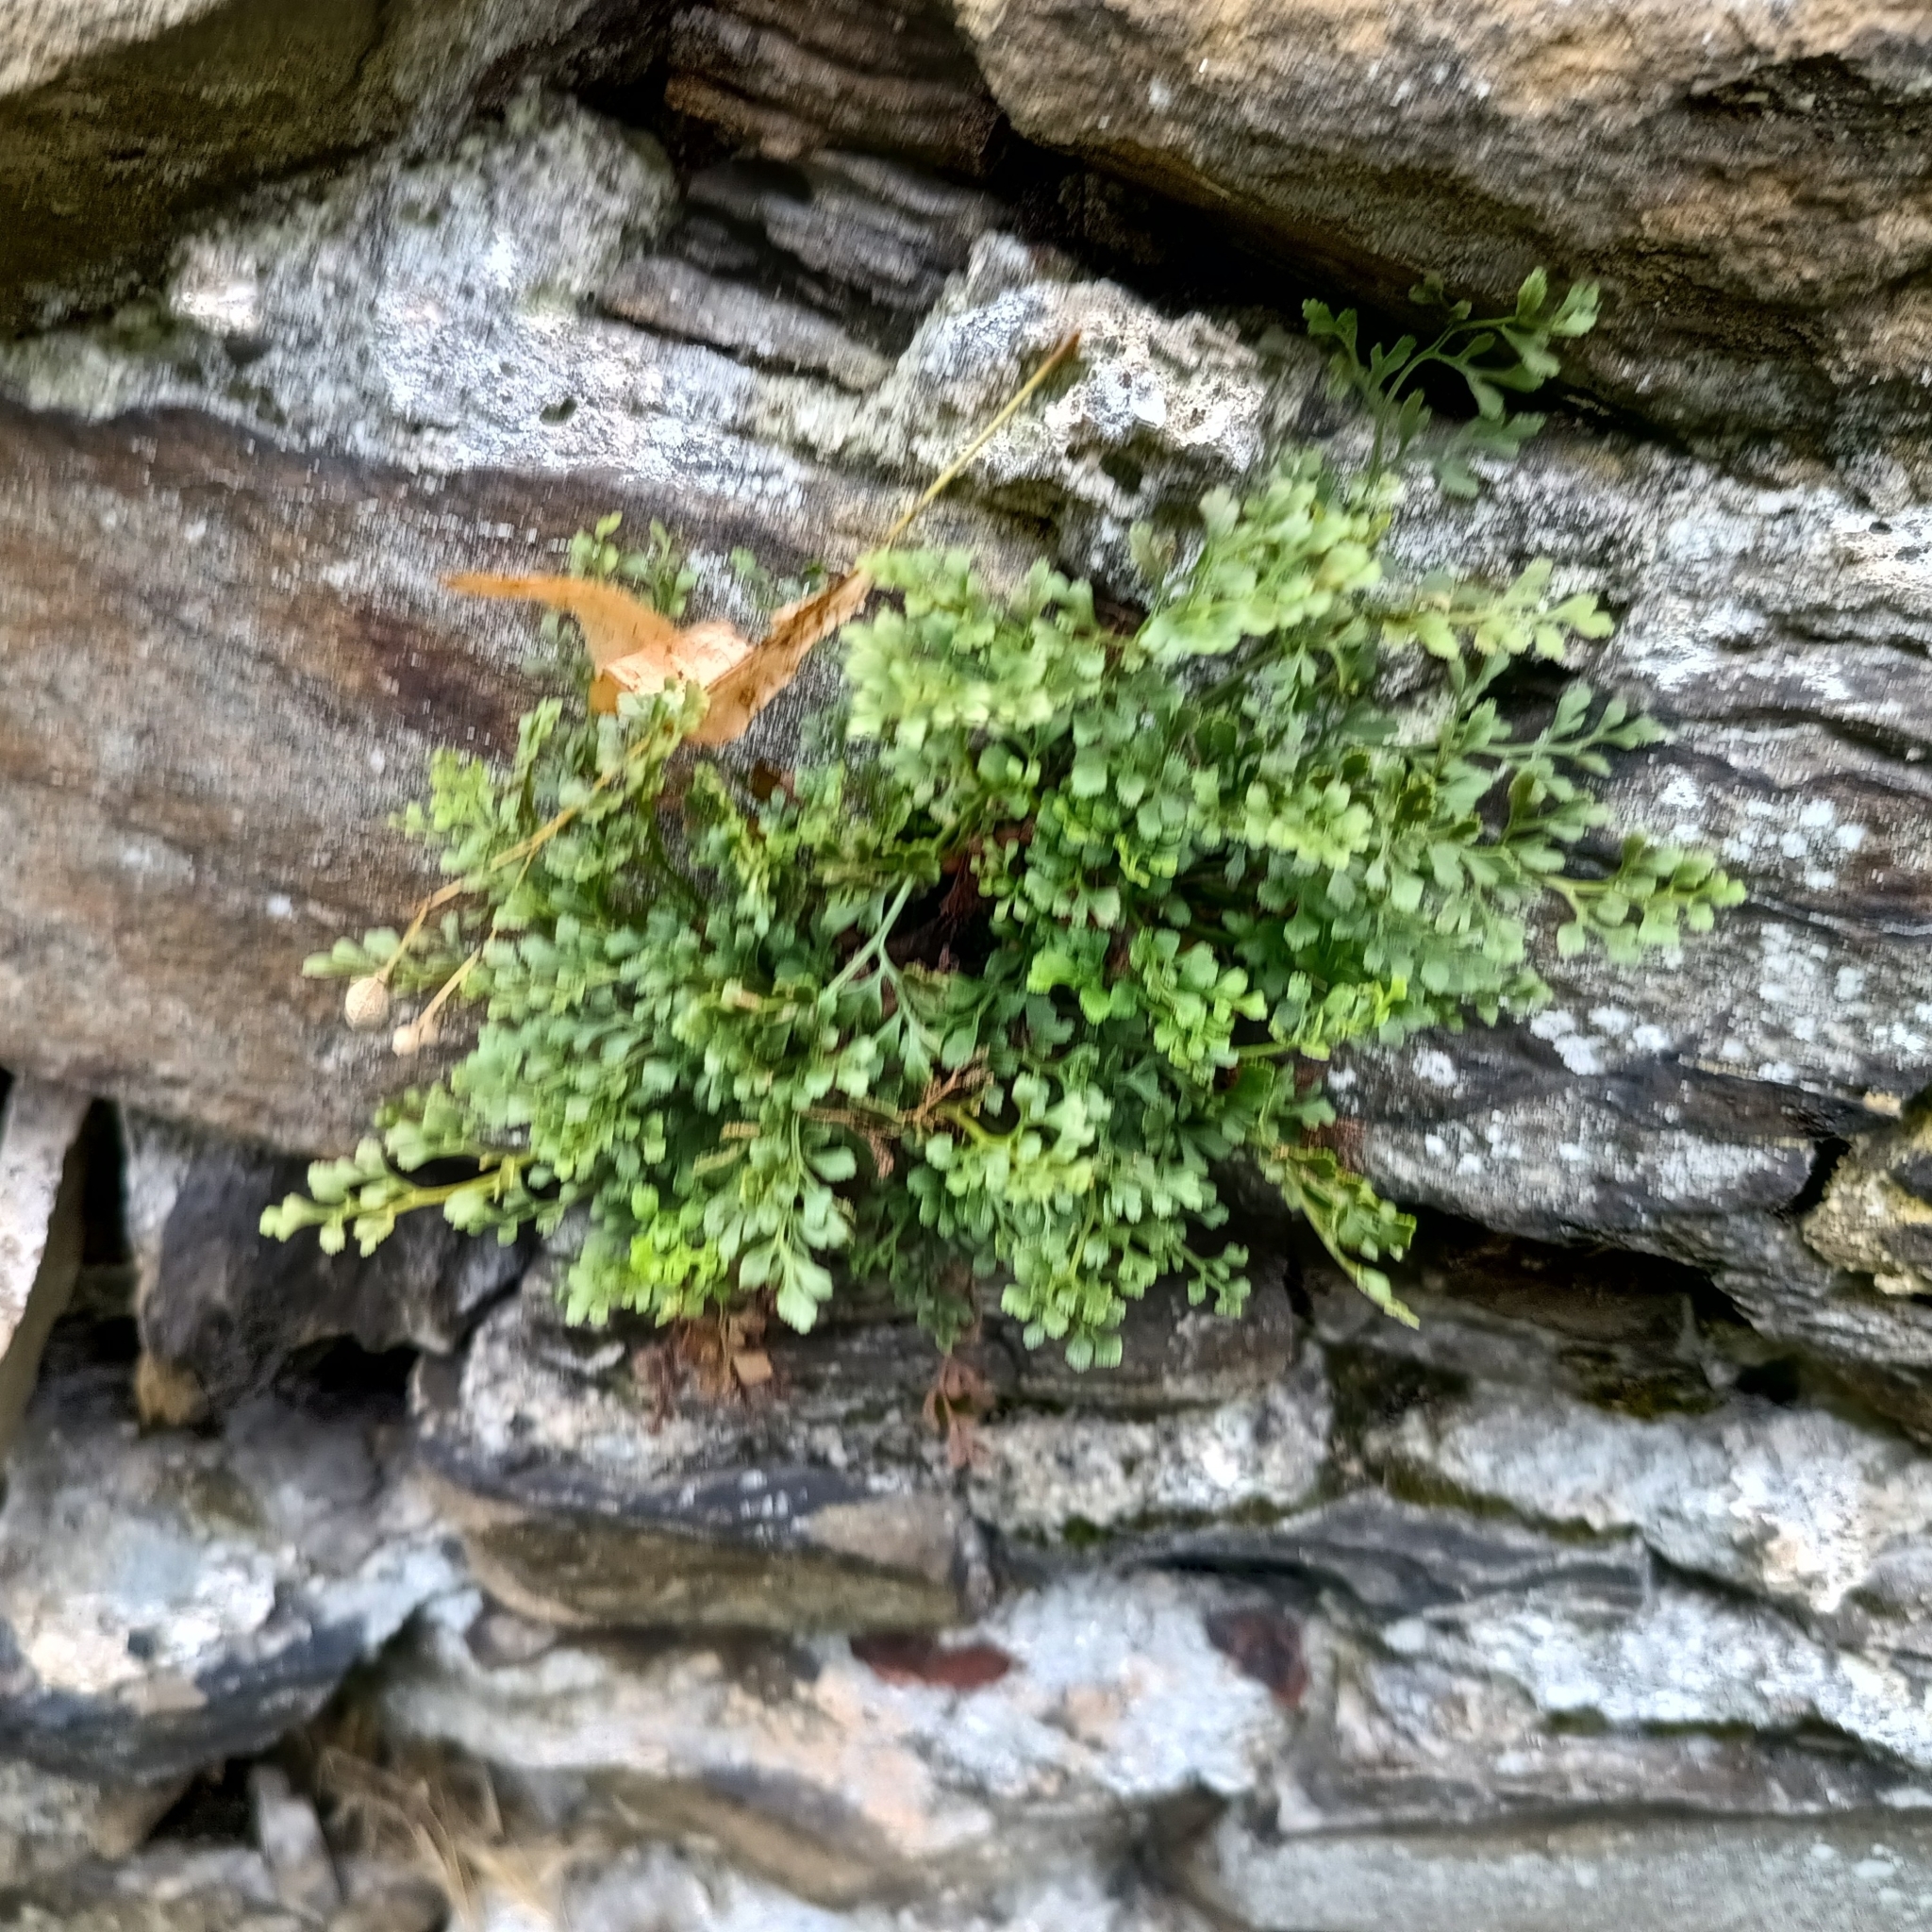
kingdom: Plantae
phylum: Tracheophyta
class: Polypodiopsida
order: Polypodiales
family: Aspleniaceae
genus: Asplenium
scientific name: Asplenium ruta-muraria
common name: Wall-rue
